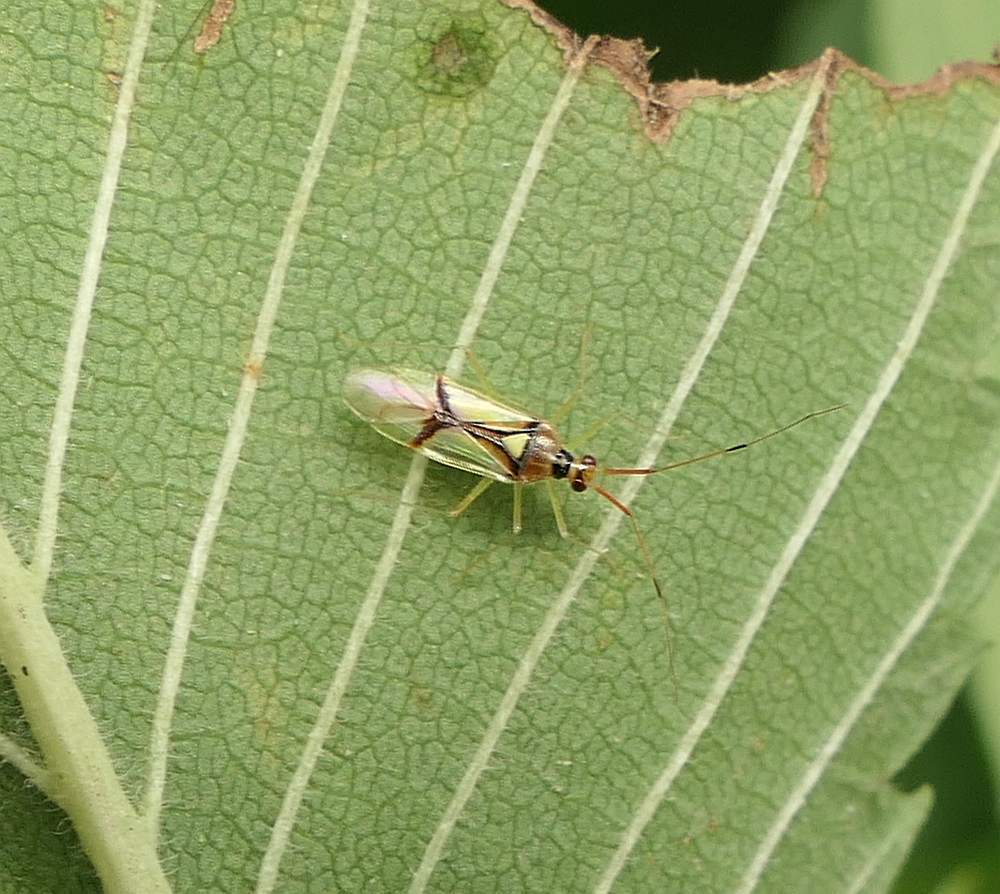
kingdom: Animalia
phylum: Arthropoda
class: Insecta
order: Hemiptera
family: Miridae
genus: Hyaliodes
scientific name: Hyaliodes harti
